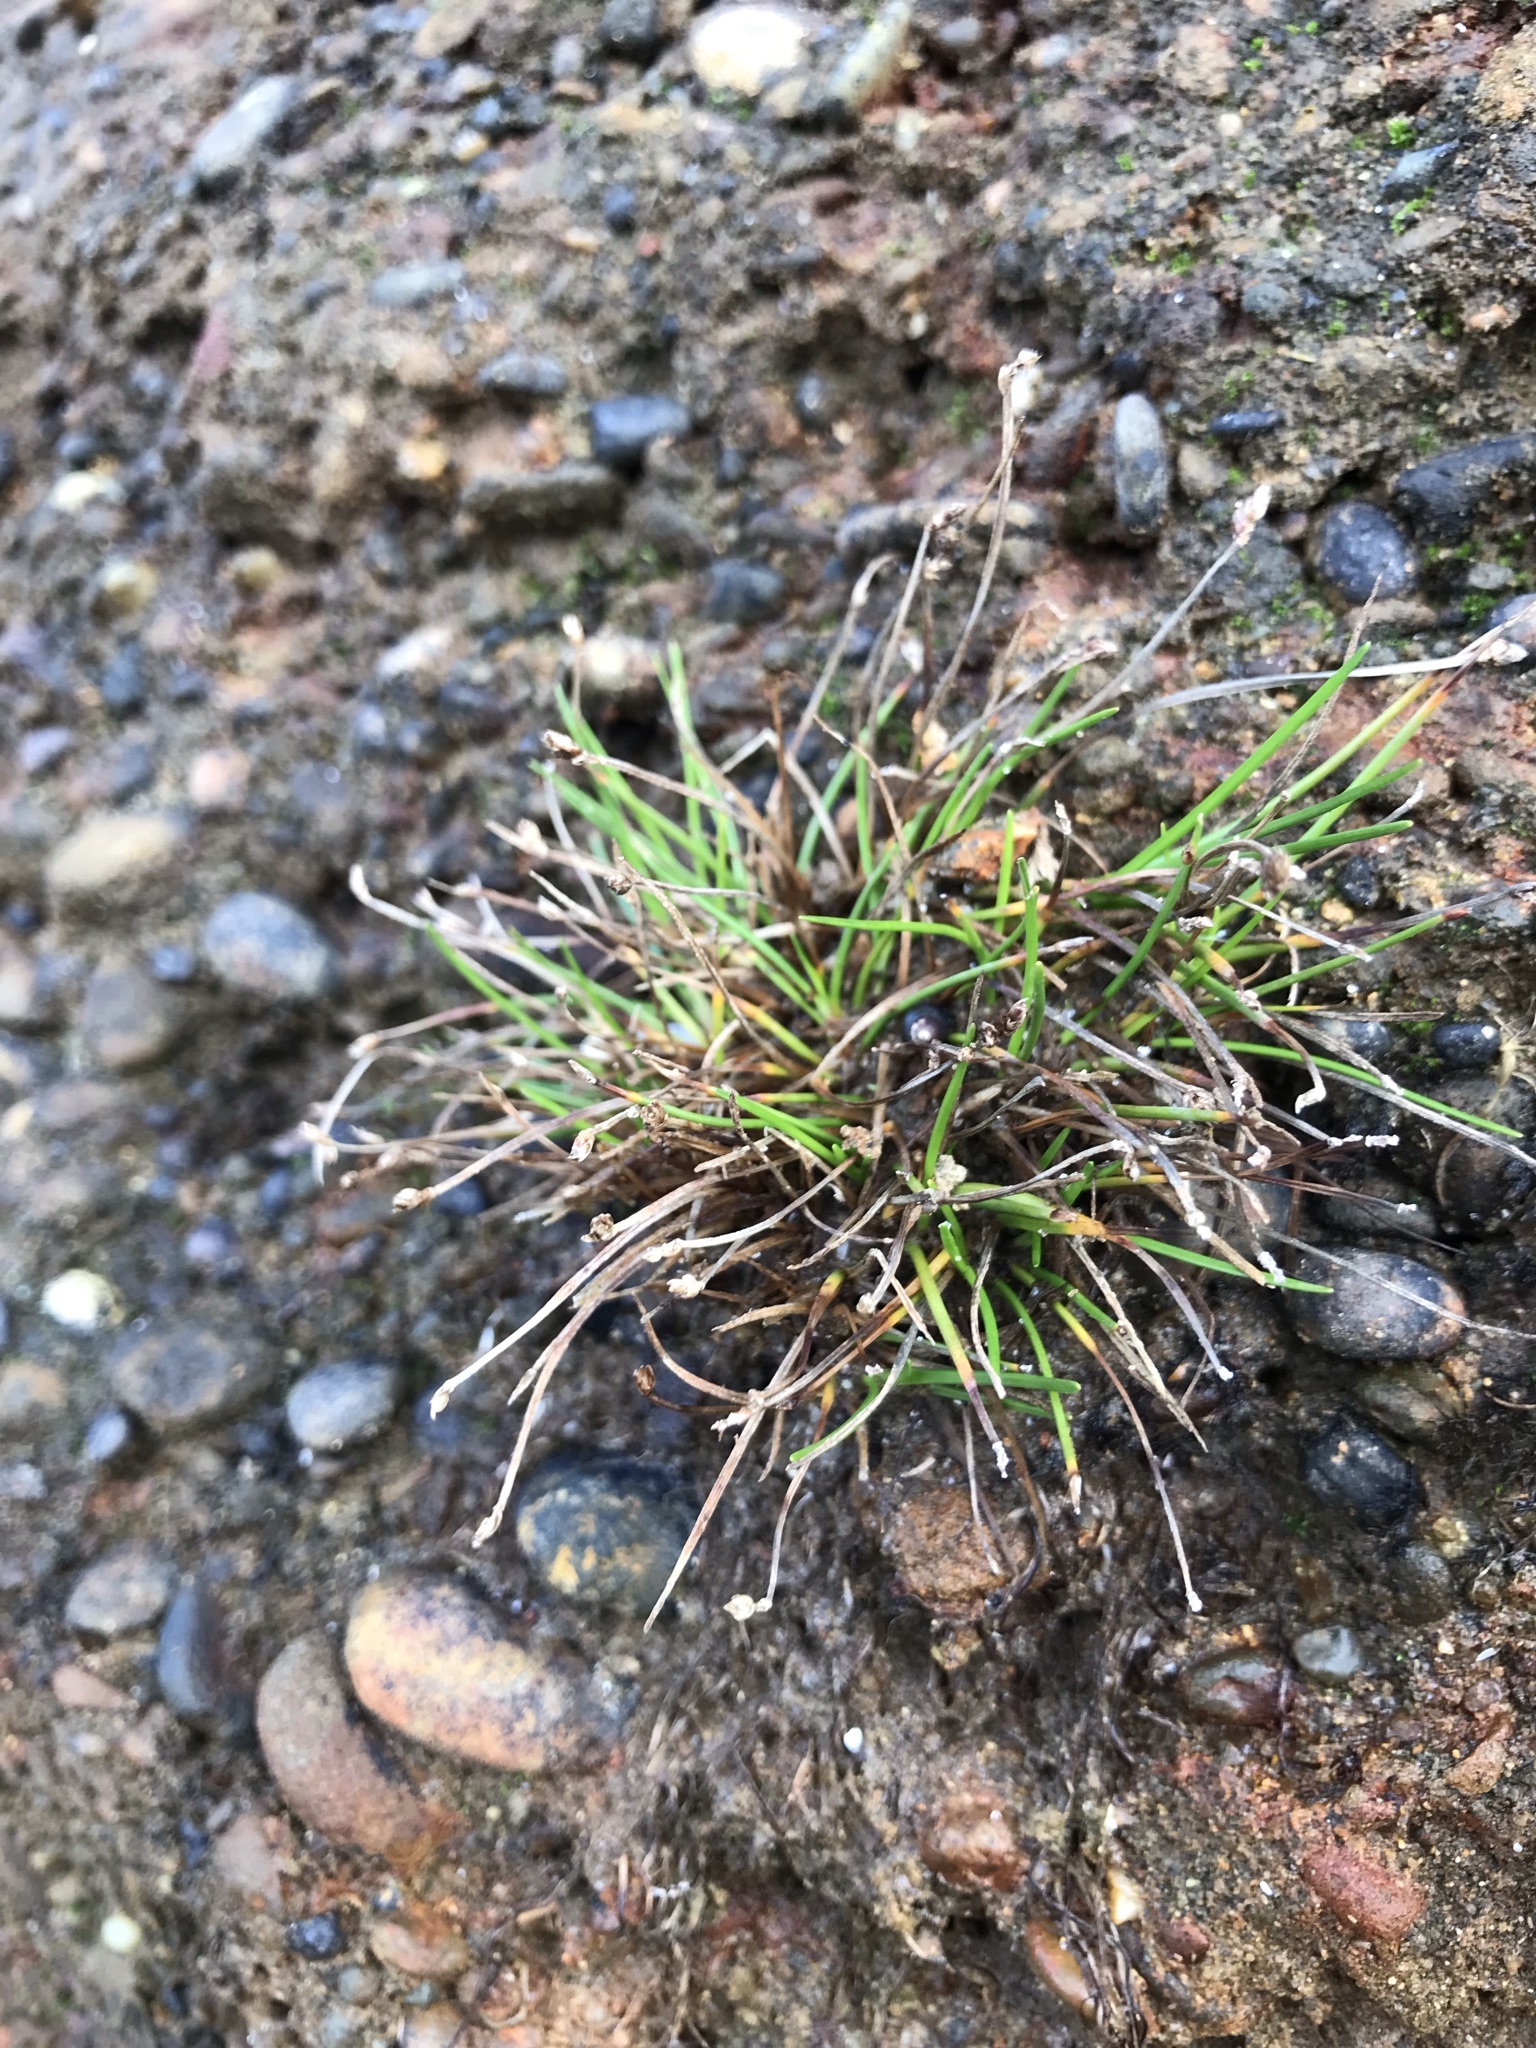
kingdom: Plantae
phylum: Tracheophyta
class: Liliopsida
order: Poales
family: Cyperaceae
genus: Isolepis
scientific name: Isolepis cernua
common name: Slender club-rush
